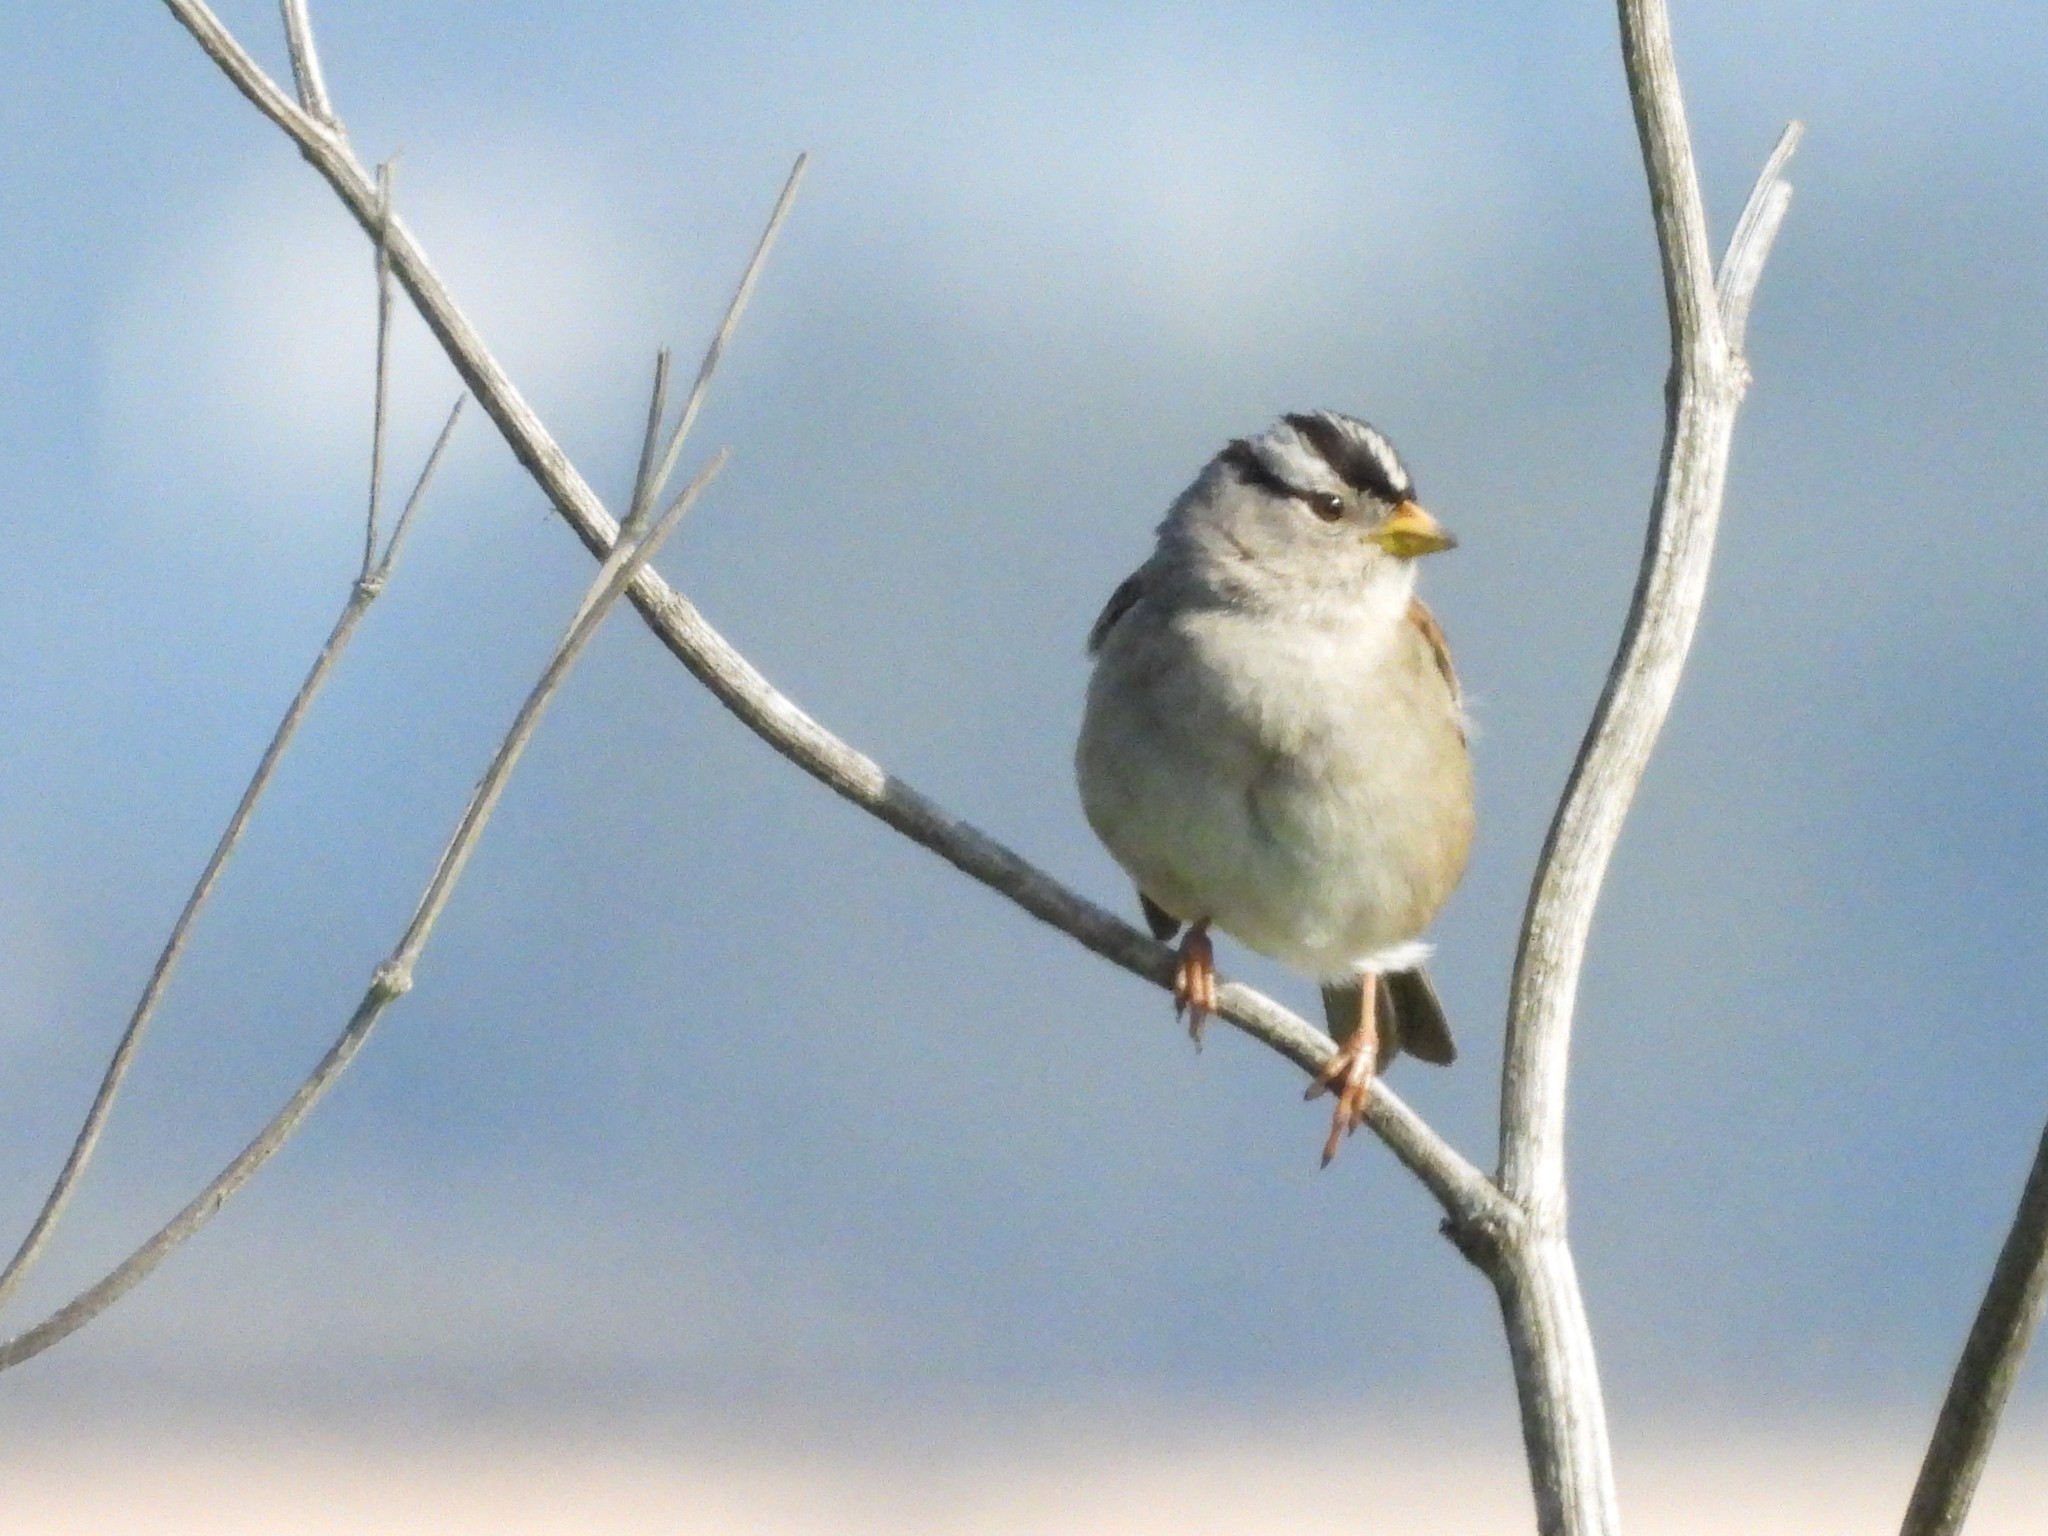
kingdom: Animalia
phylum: Chordata
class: Aves
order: Passeriformes
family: Passerellidae
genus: Zonotrichia
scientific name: Zonotrichia leucophrys
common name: White-crowned sparrow
